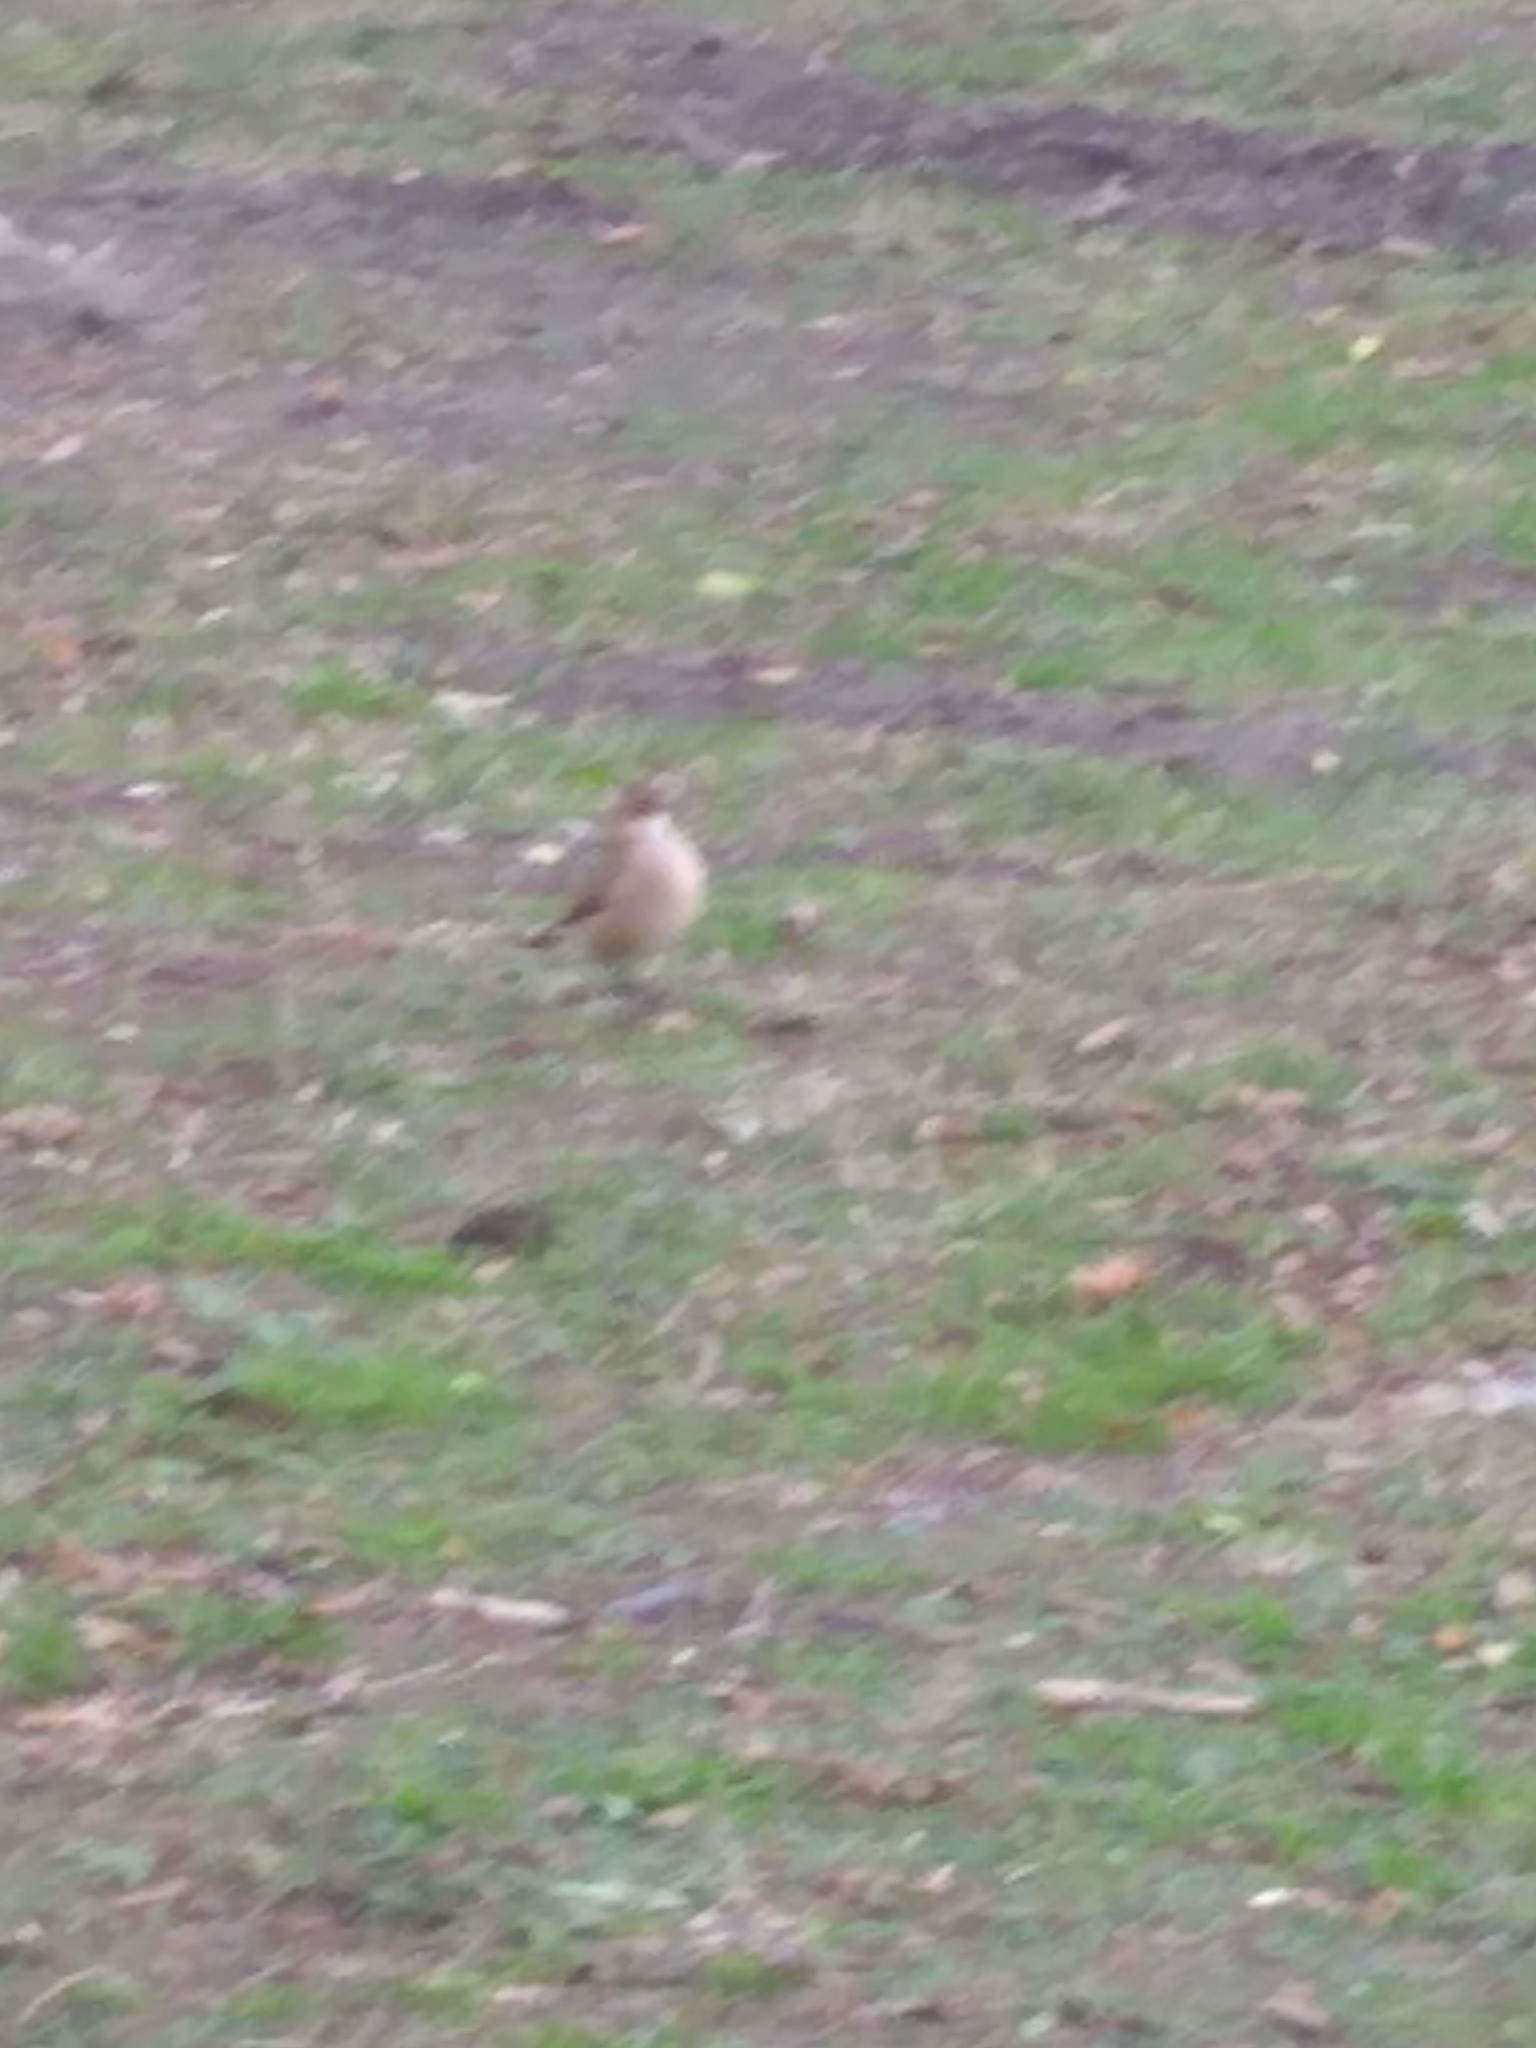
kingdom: Animalia
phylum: Chordata
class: Aves
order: Passeriformes
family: Turdidae
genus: Turdus
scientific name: Turdus rufiventris
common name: Rufous-bellied thrush
